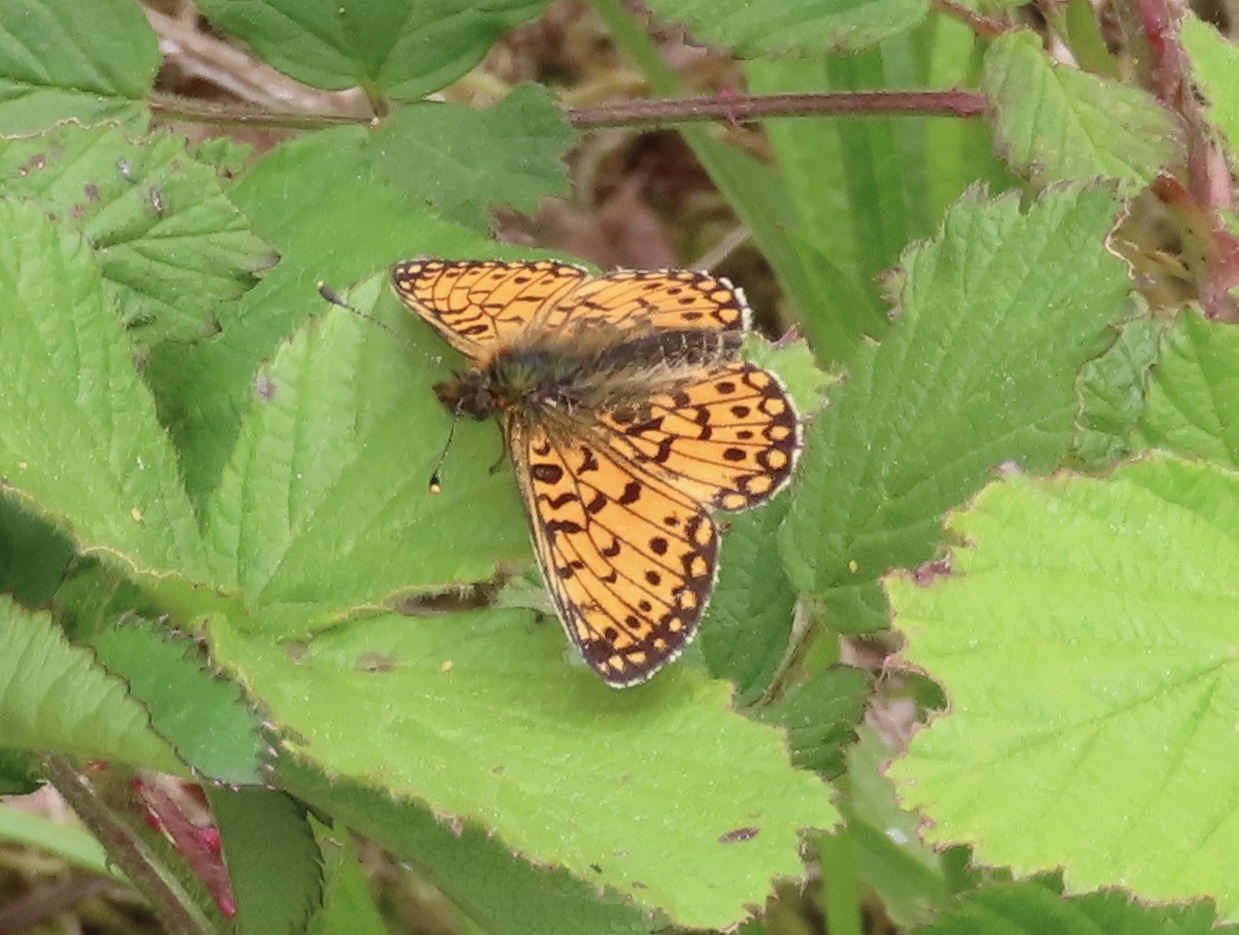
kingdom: Animalia
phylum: Arthropoda
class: Insecta
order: Lepidoptera
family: Nymphalidae
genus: Boloria
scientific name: Boloria selene
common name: Small pearl-bordered fritillary
